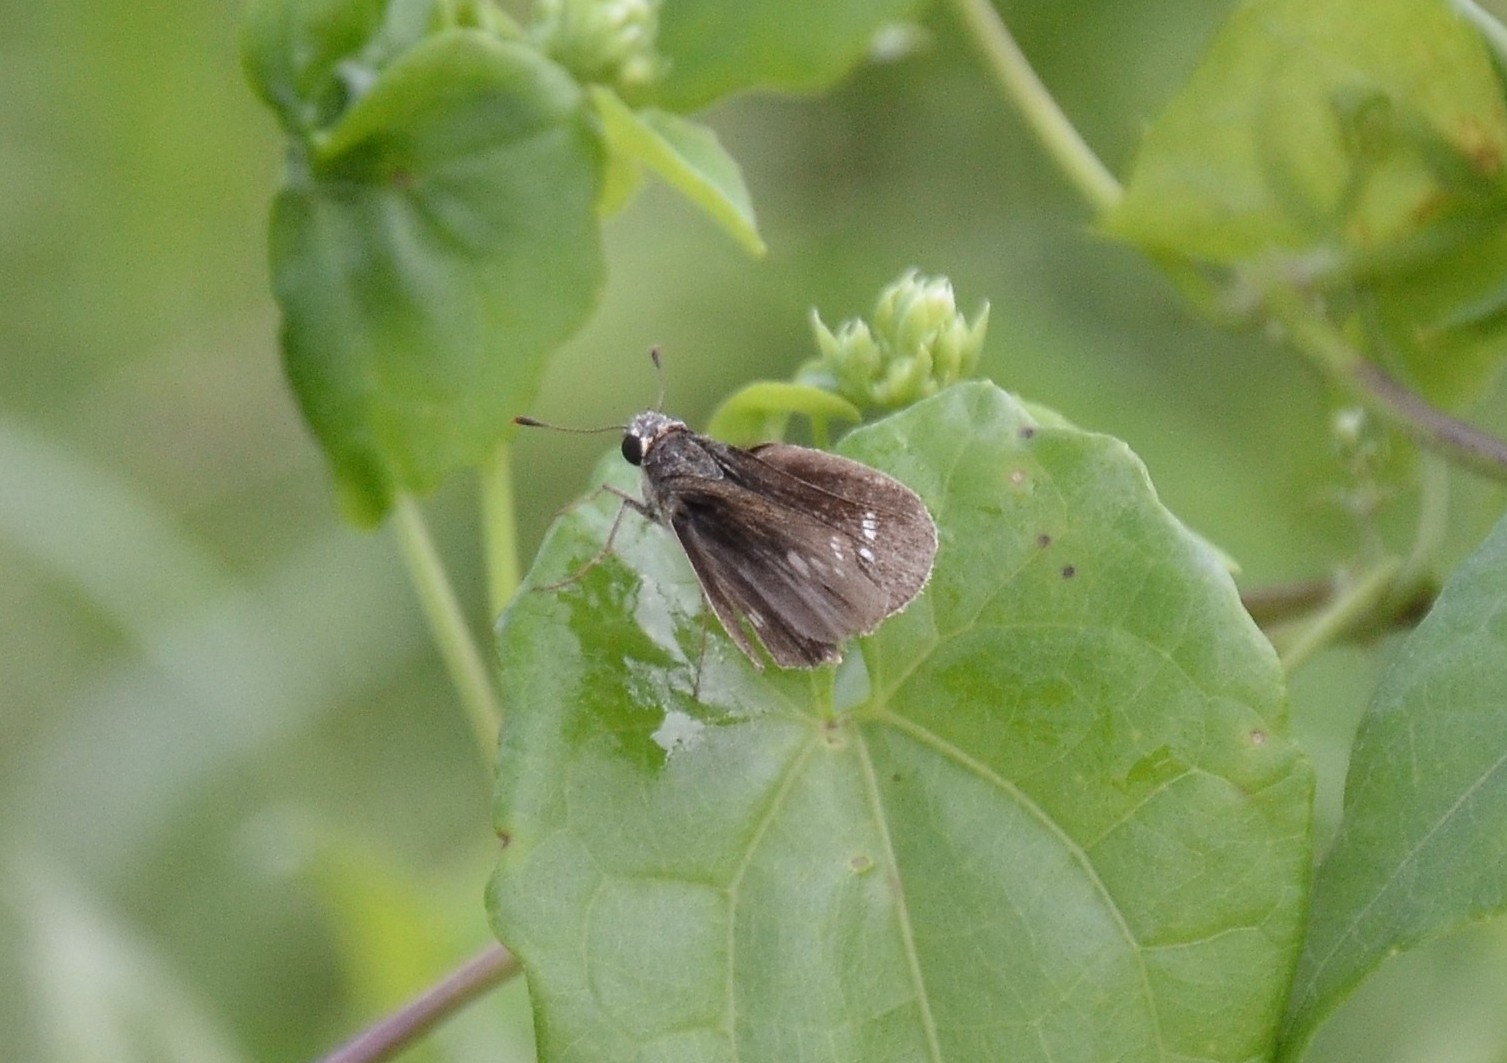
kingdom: Animalia
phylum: Arthropoda
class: Insecta
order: Lepidoptera
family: Hesperiidae
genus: Parnara
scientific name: Parnara naso
